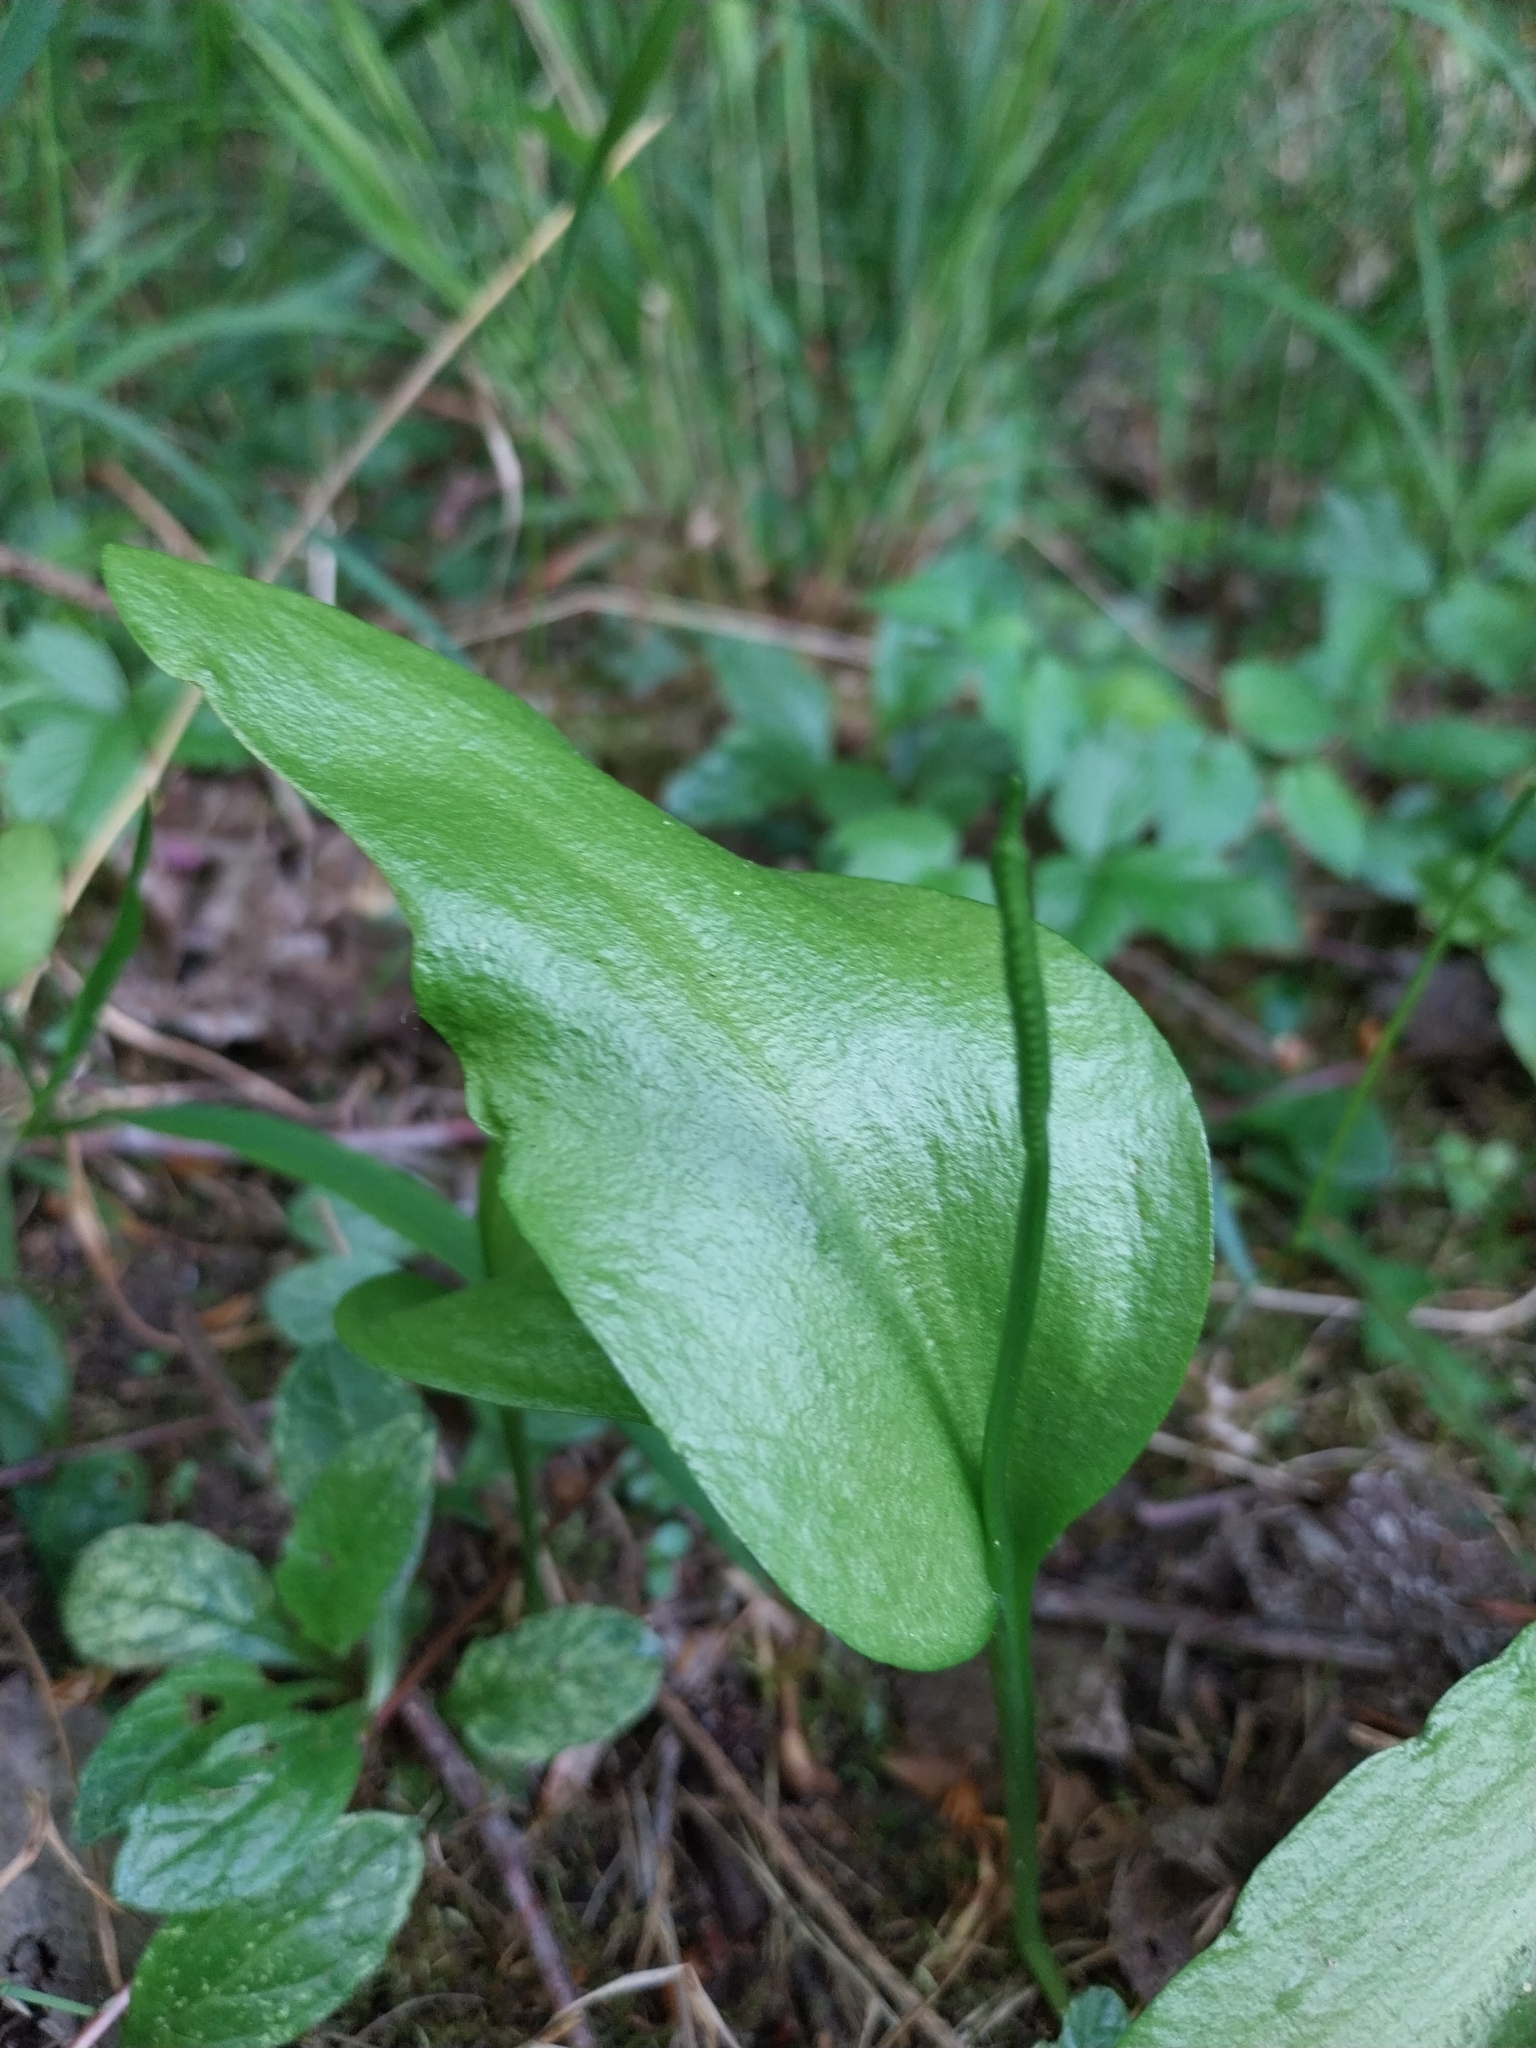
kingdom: Plantae
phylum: Tracheophyta
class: Polypodiopsida
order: Ophioglossales
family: Ophioglossaceae
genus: Ophioglossum
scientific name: Ophioglossum vulgatum
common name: Adder's-tongue
